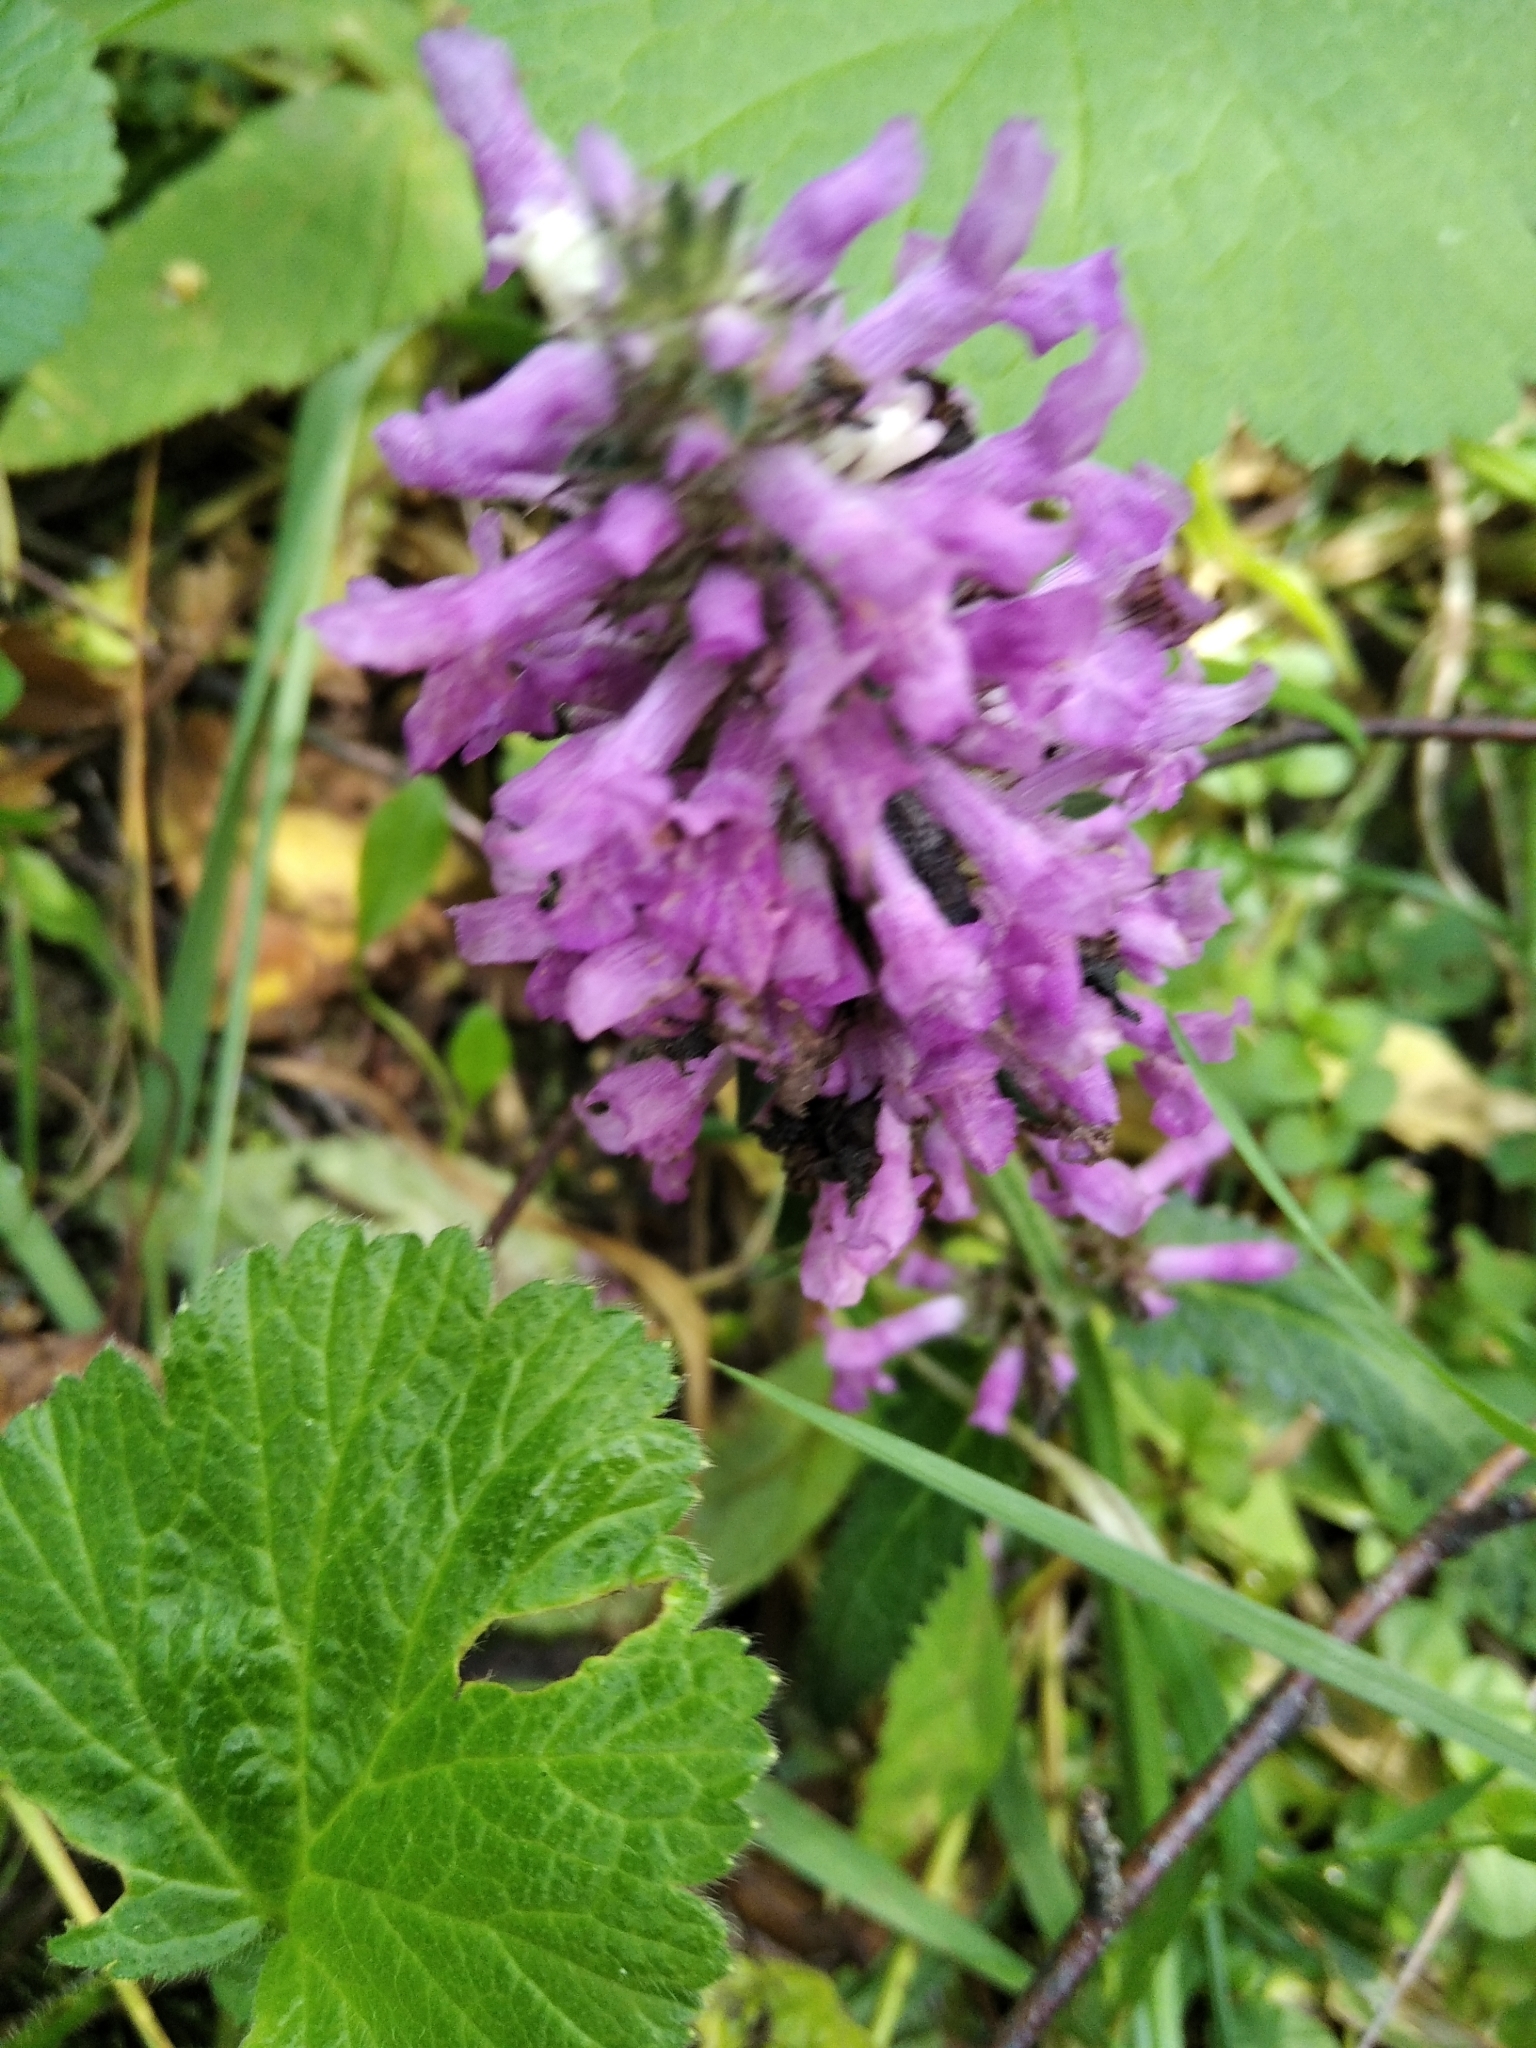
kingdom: Plantae
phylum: Tracheophyta
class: Magnoliopsida
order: Lamiales
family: Lamiaceae
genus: Betonica
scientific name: Betonica officinalis
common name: Bishop's-wort
